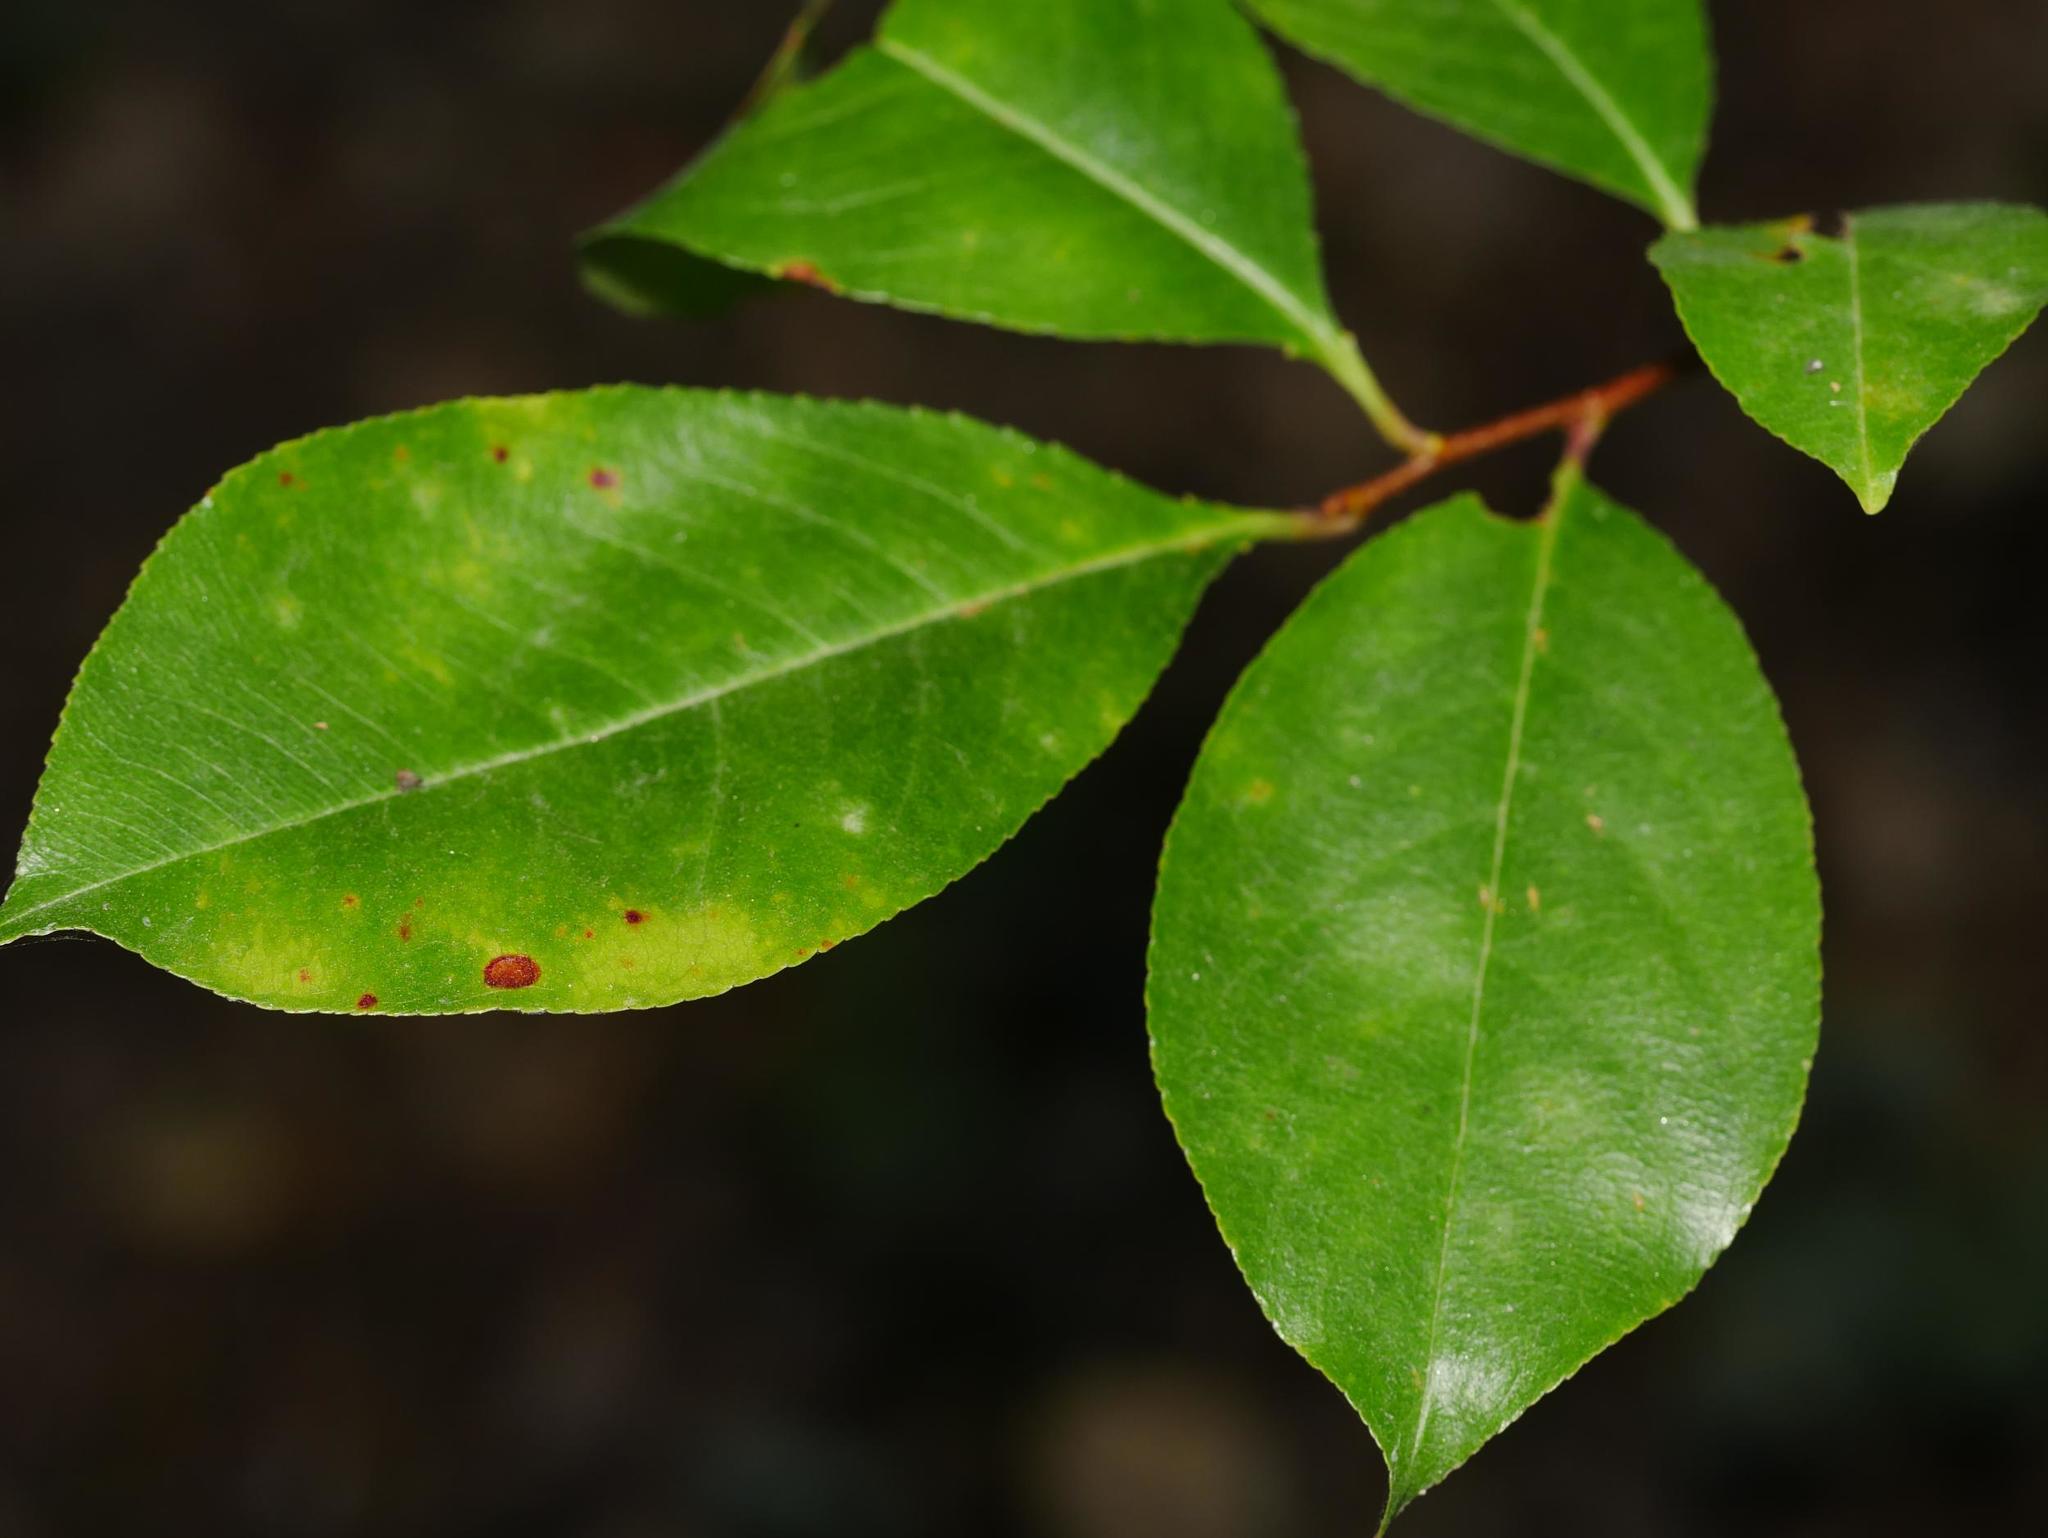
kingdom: Plantae
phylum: Tracheophyta
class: Magnoliopsida
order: Rosales
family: Rosaceae
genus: Prunus
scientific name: Prunus serotina
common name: Black cherry
